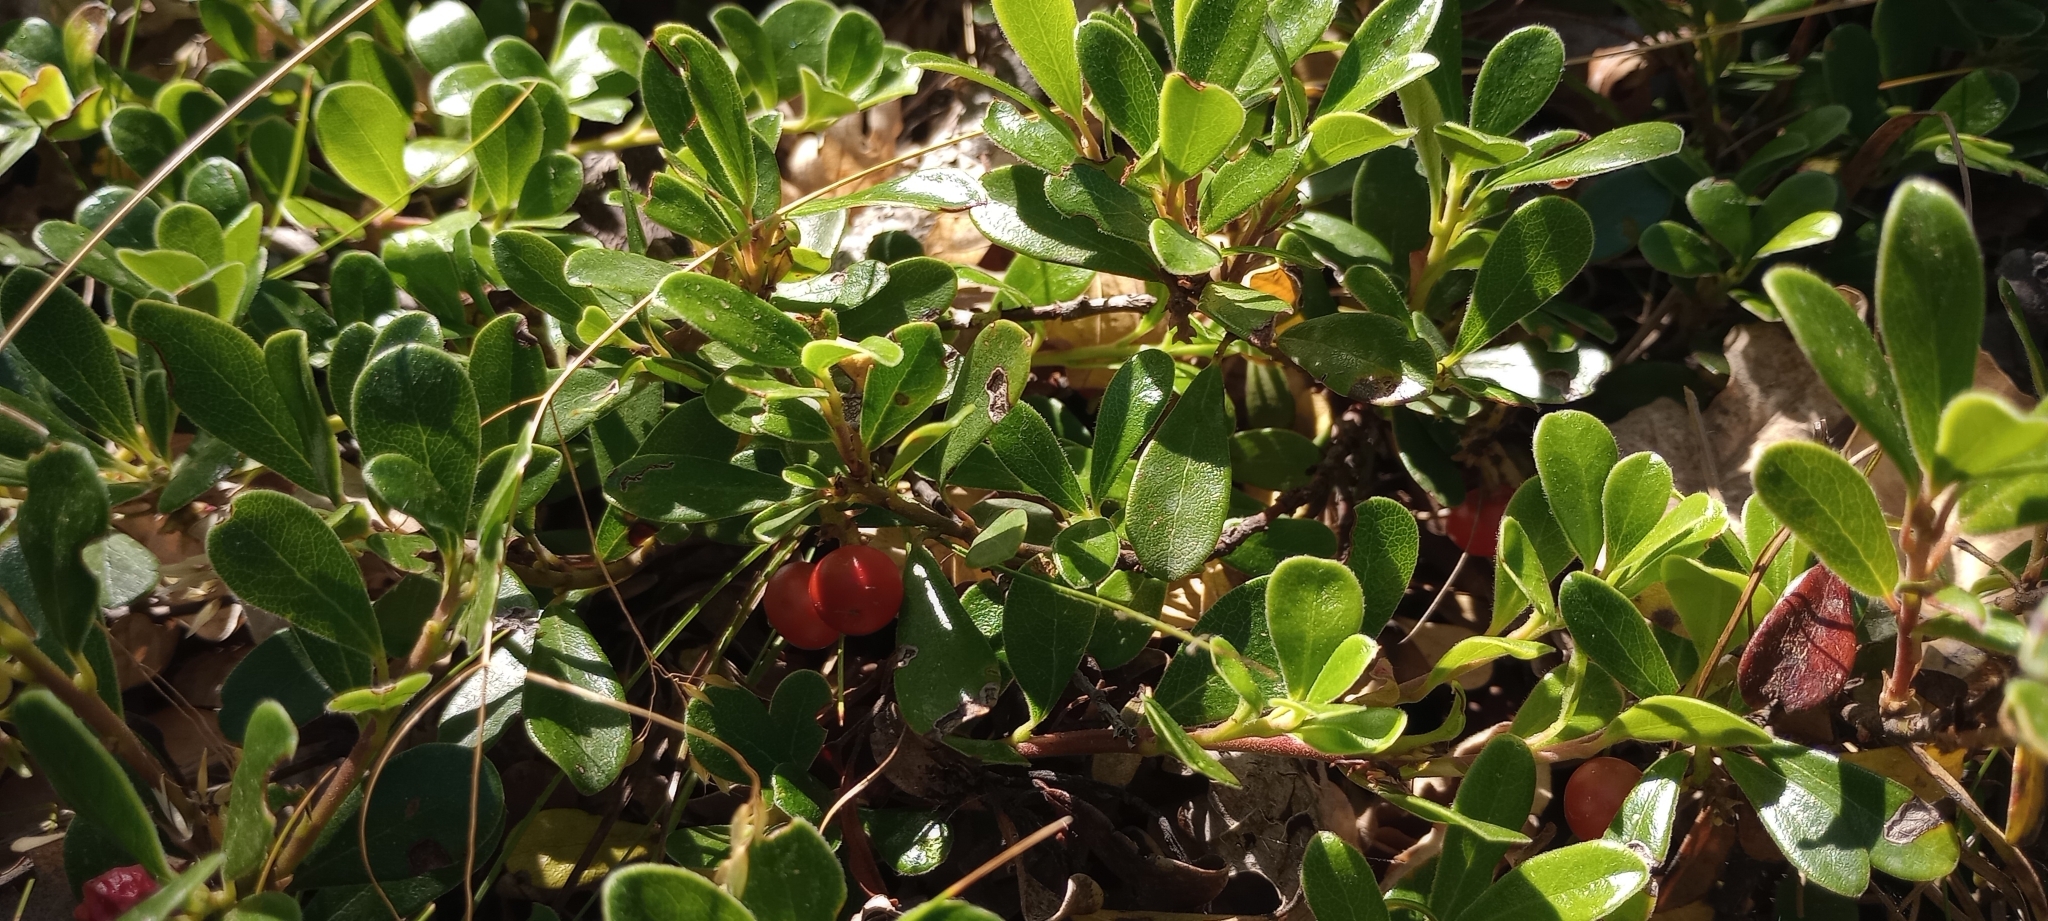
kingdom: Plantae
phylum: Tracheophyta
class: Magnoliopsida
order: Ericales
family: Ericaceae
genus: Arctostaphylos
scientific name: Arctostaphylos uva-ursi
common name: Bearberry
